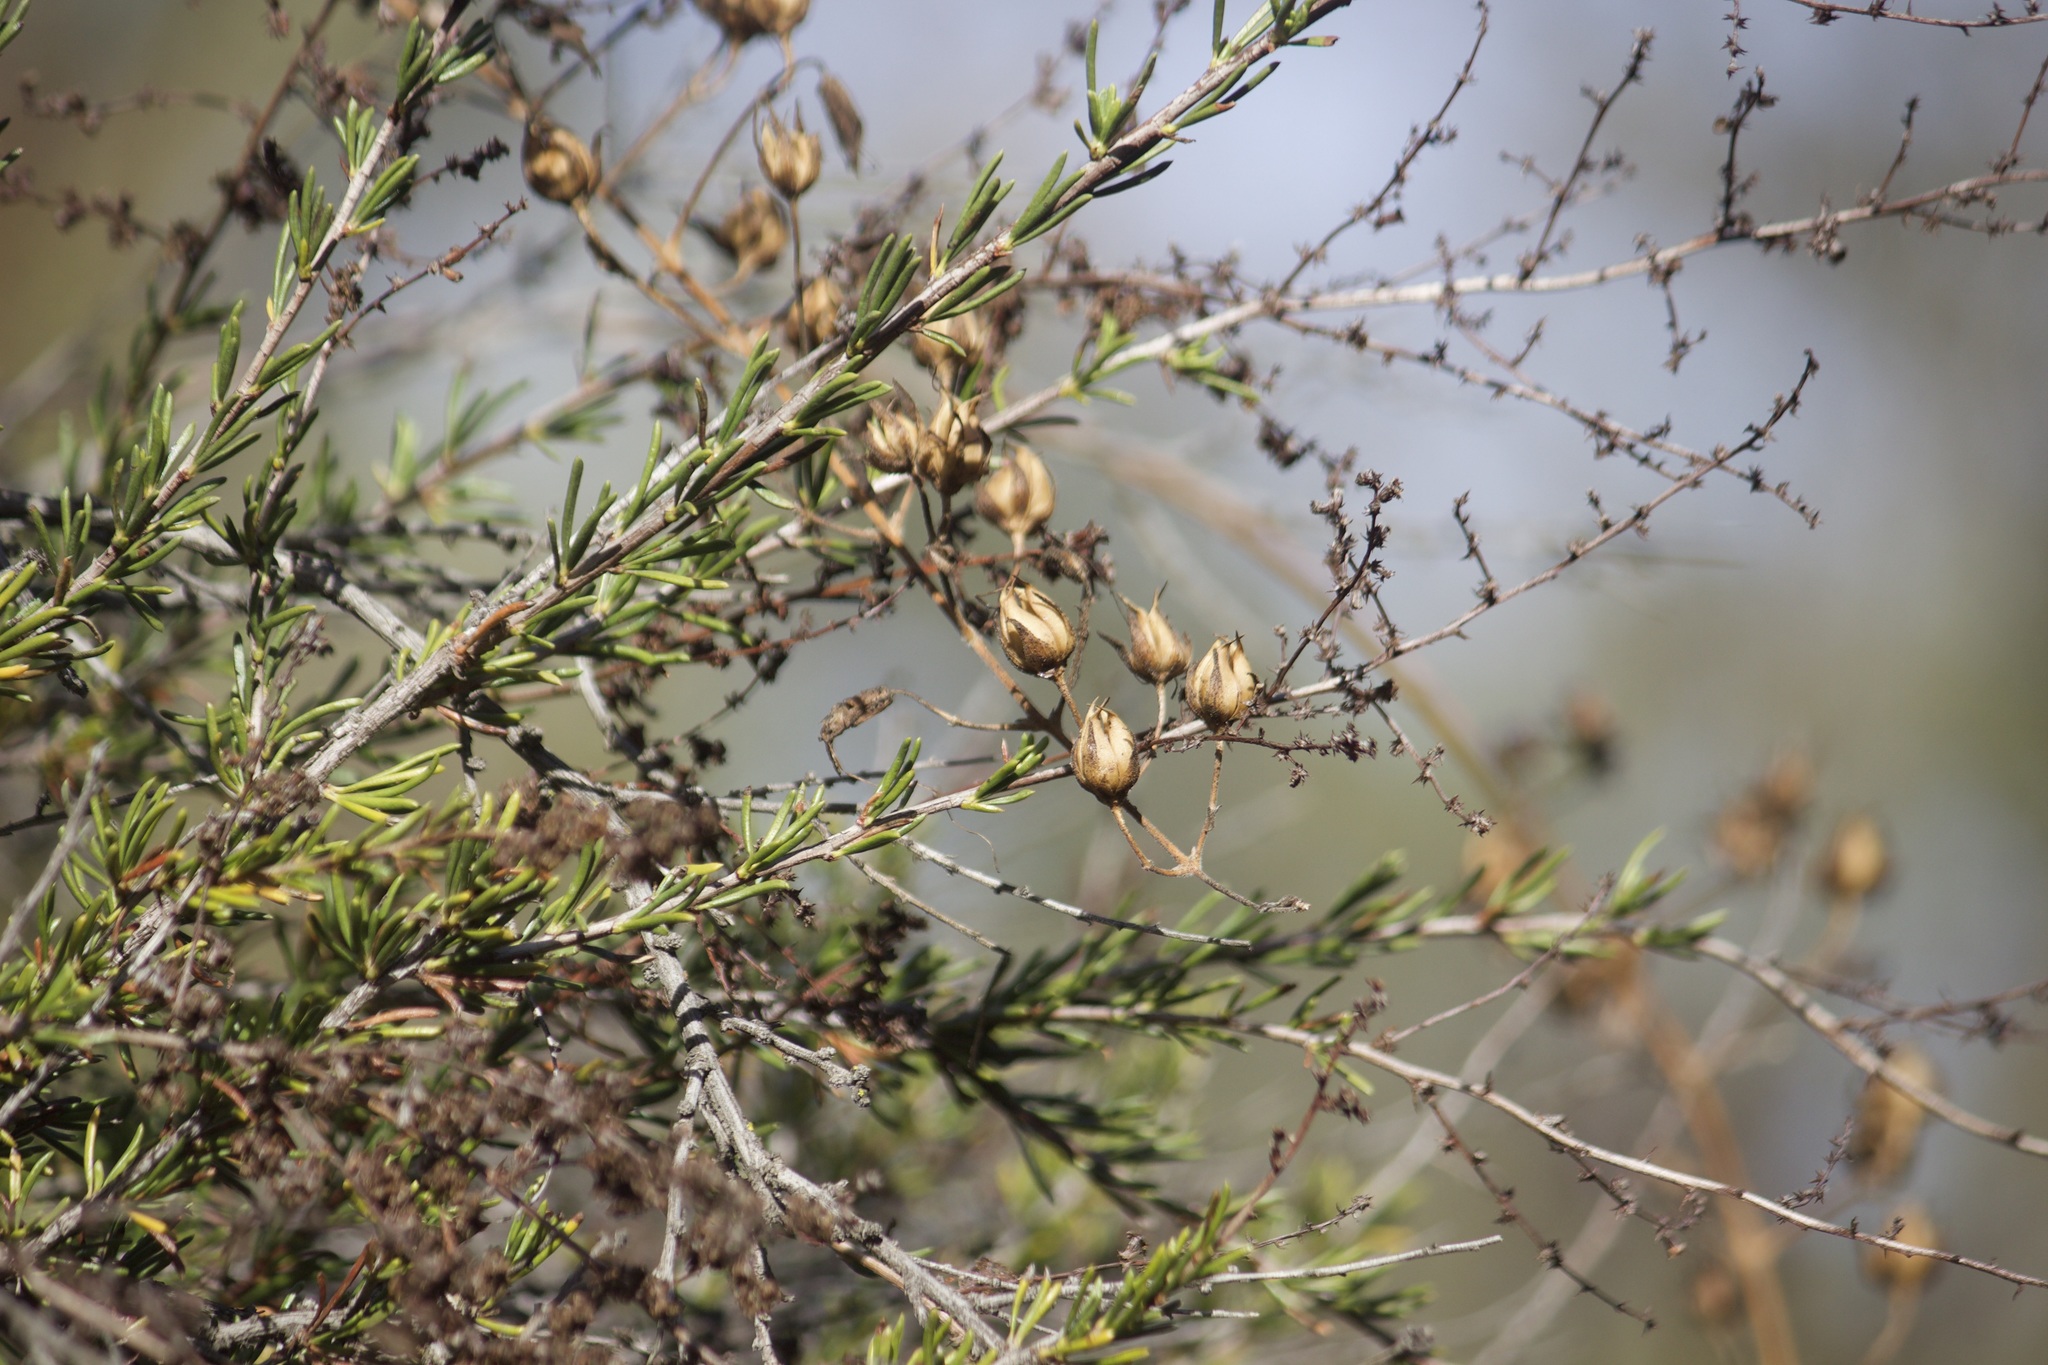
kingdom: Plantae
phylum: Tracheophyta
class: Magnoliopsida
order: Rosales
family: Rosaceae
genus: Adenostoma
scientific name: Adenostoma fasciculatum
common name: Chamise
